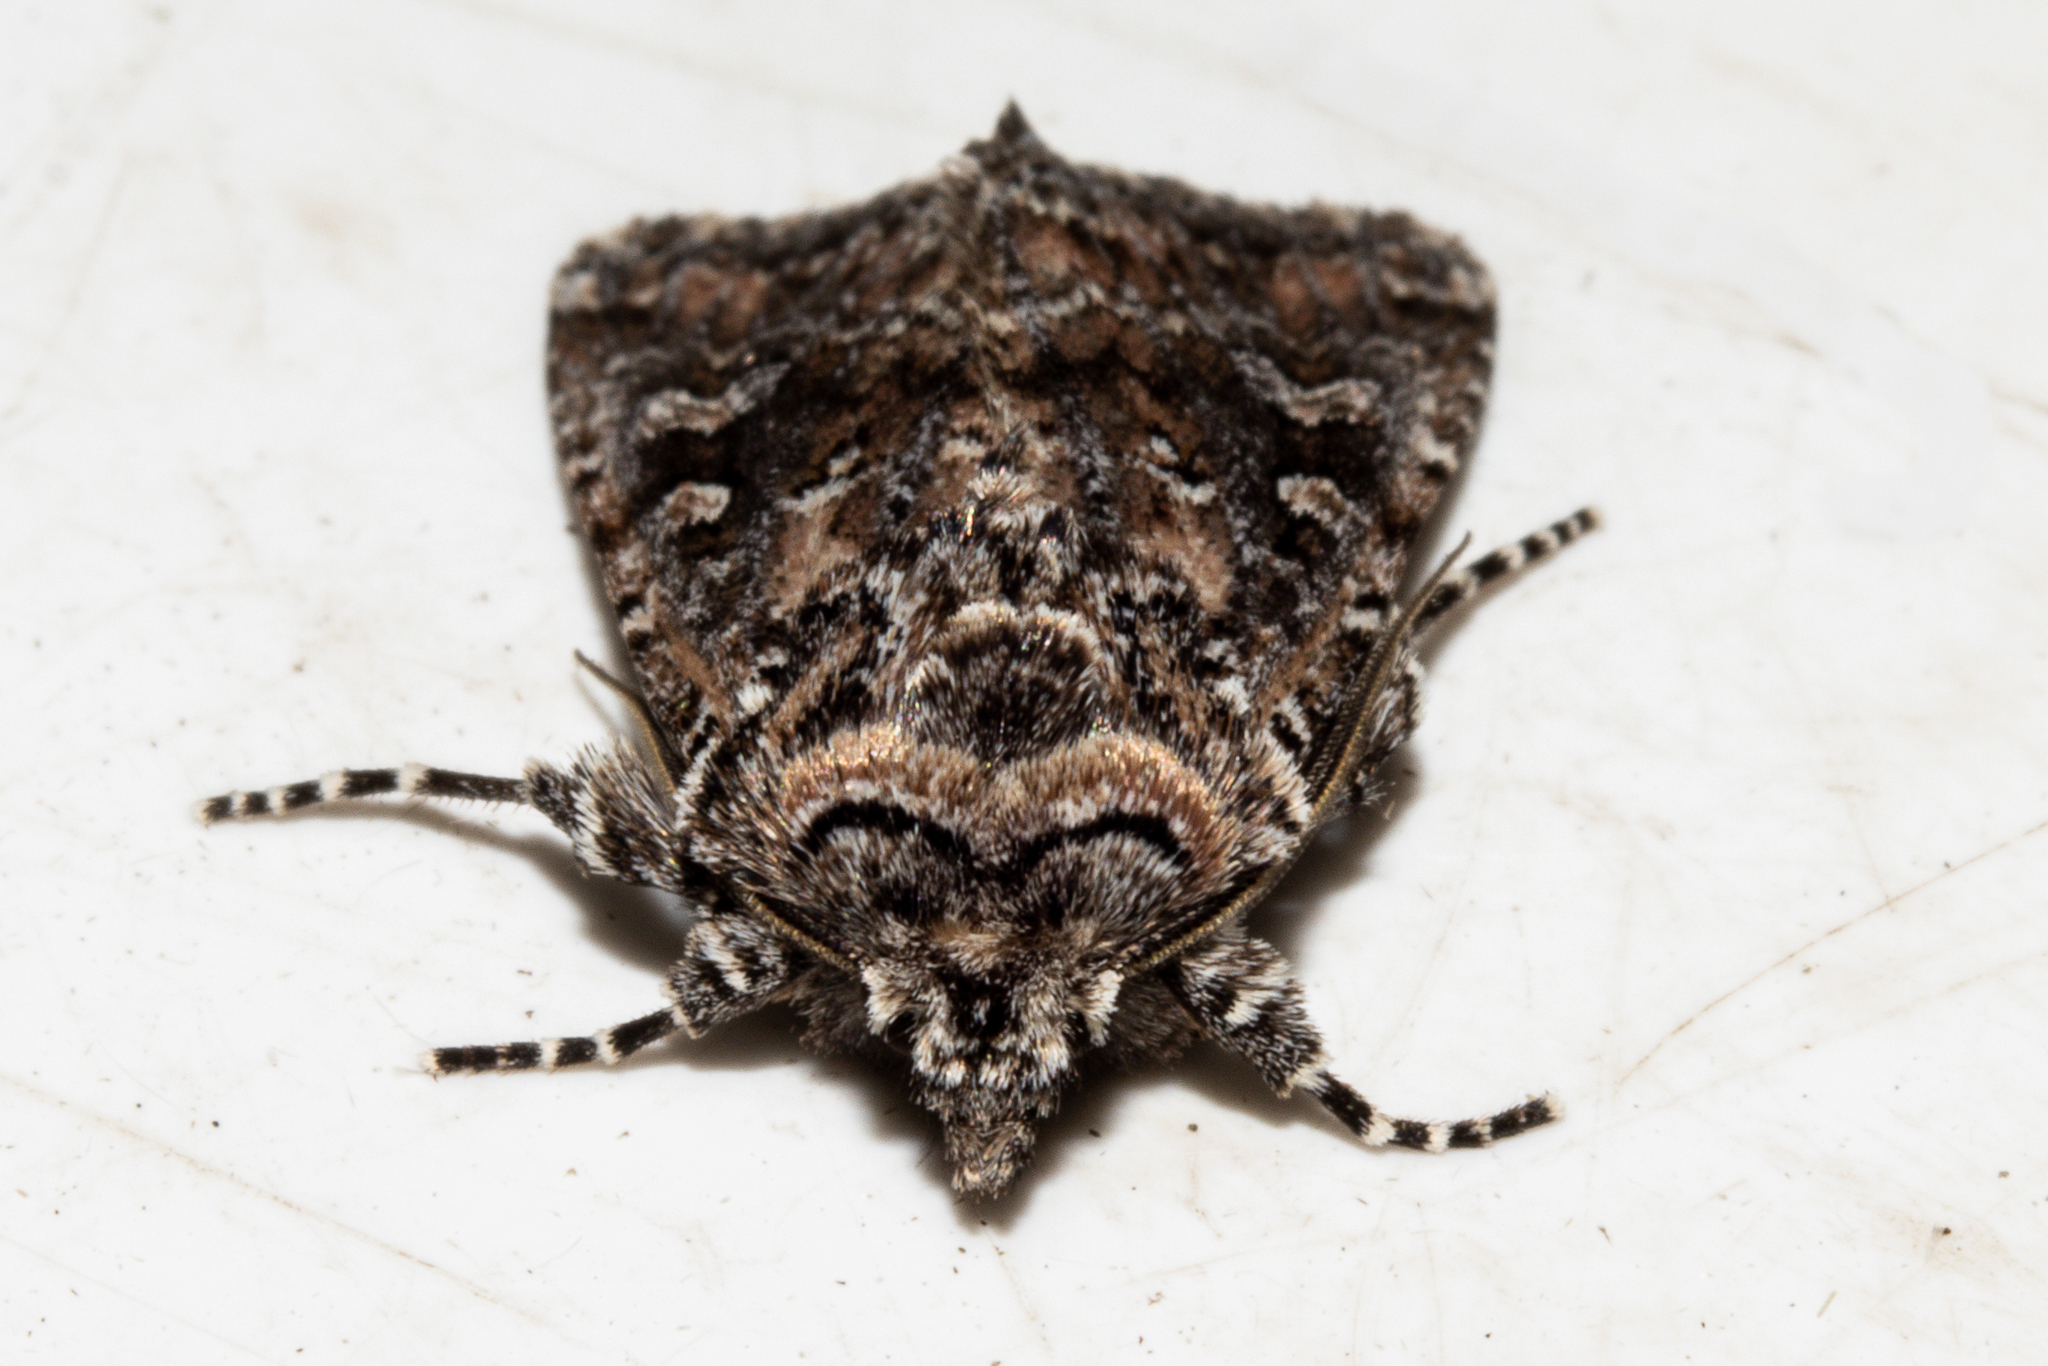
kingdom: Animalia
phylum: Arthropoda
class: Insecta
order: Lepidoptera
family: Noctuidae
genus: Ichneutica
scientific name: Ichneutica lithias
